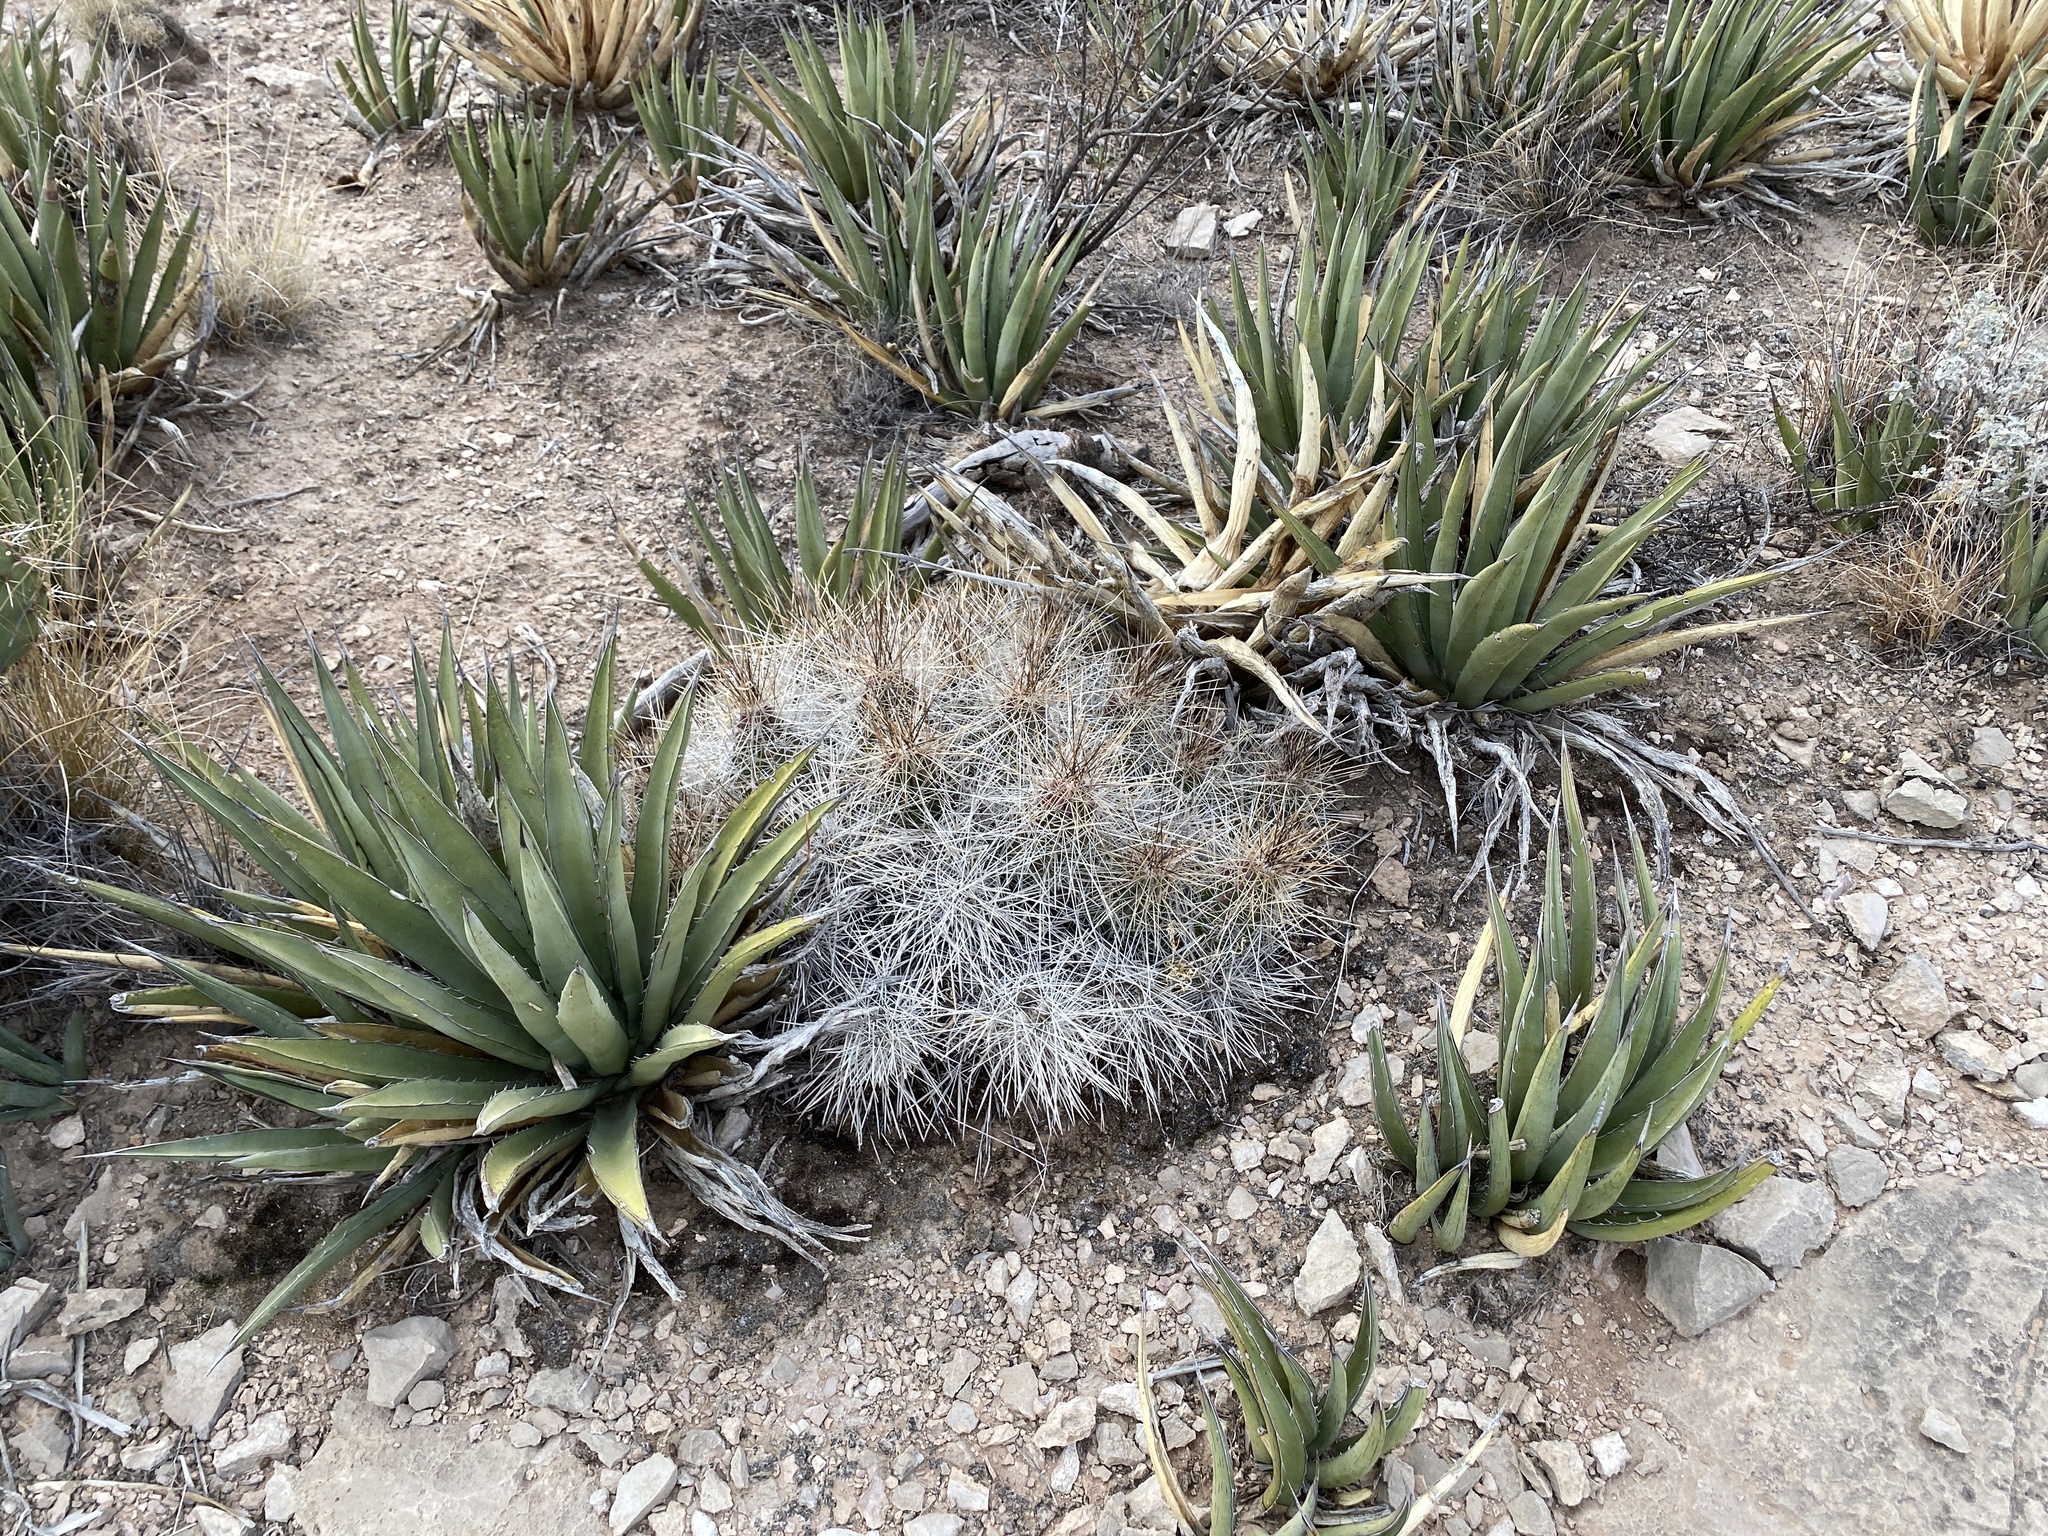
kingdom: Plantae
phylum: Tracheophyta
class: Magnoliopsida
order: Caryophyllales
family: Cactaceae
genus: Echinocereus
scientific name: Echinocereus stramineus
